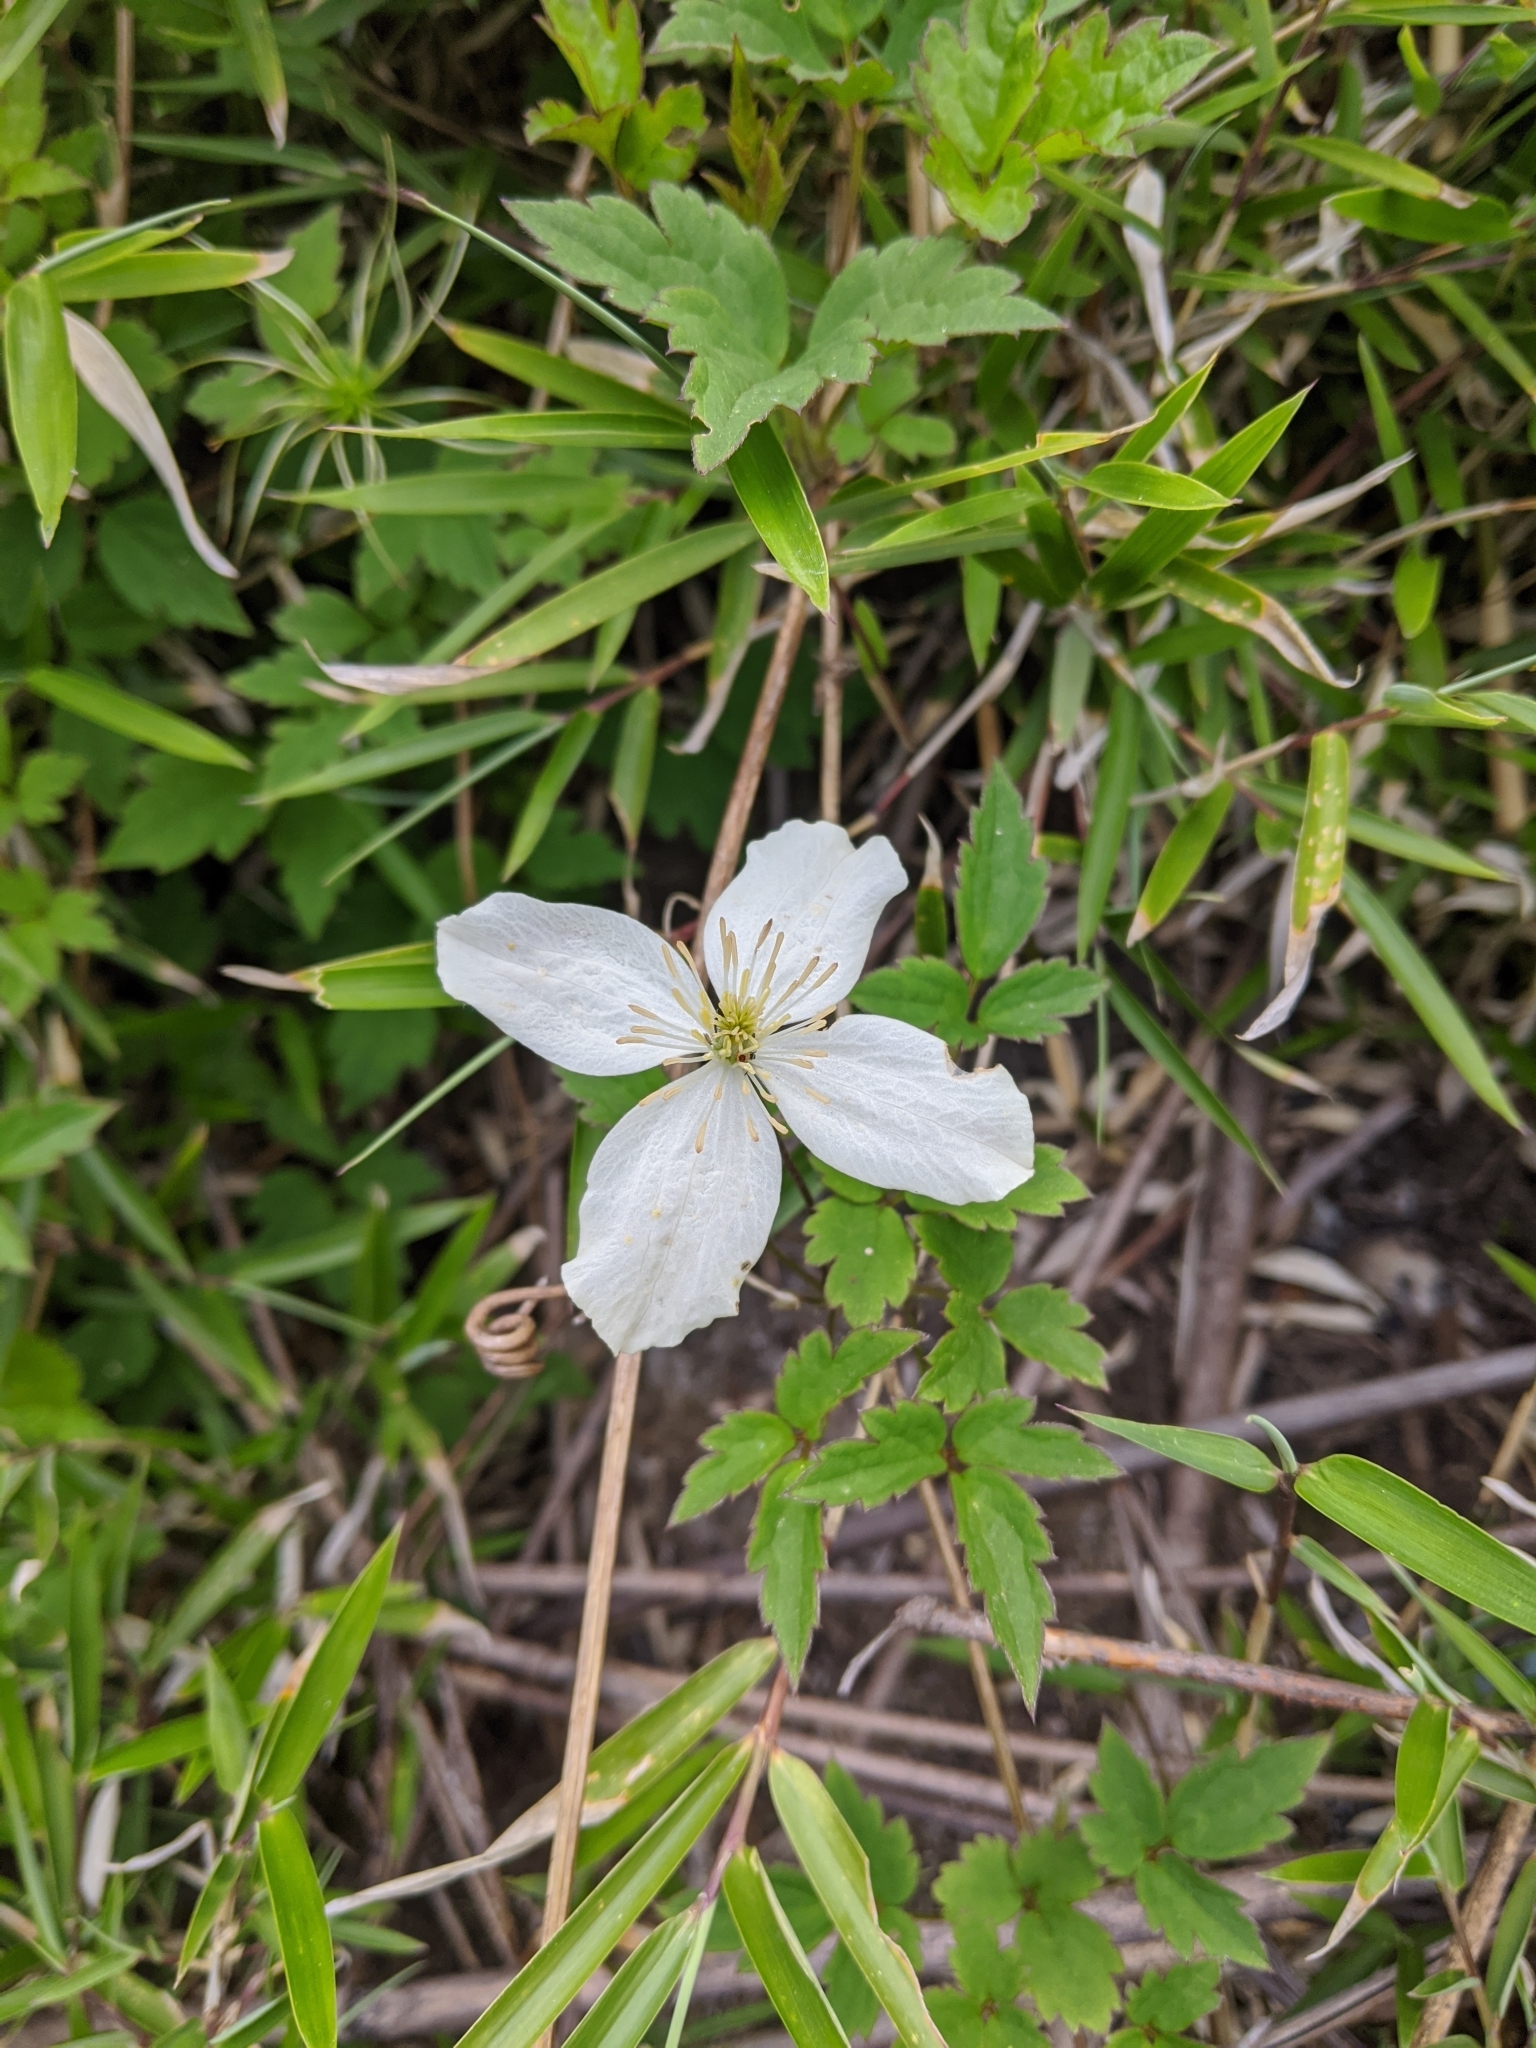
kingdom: Plantae
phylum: Tracheophyta
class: Magnoliopsida
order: Ranunculales
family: Ranunculaceae
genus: Clematis
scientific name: Clematis montana
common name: Himalayan clematis
